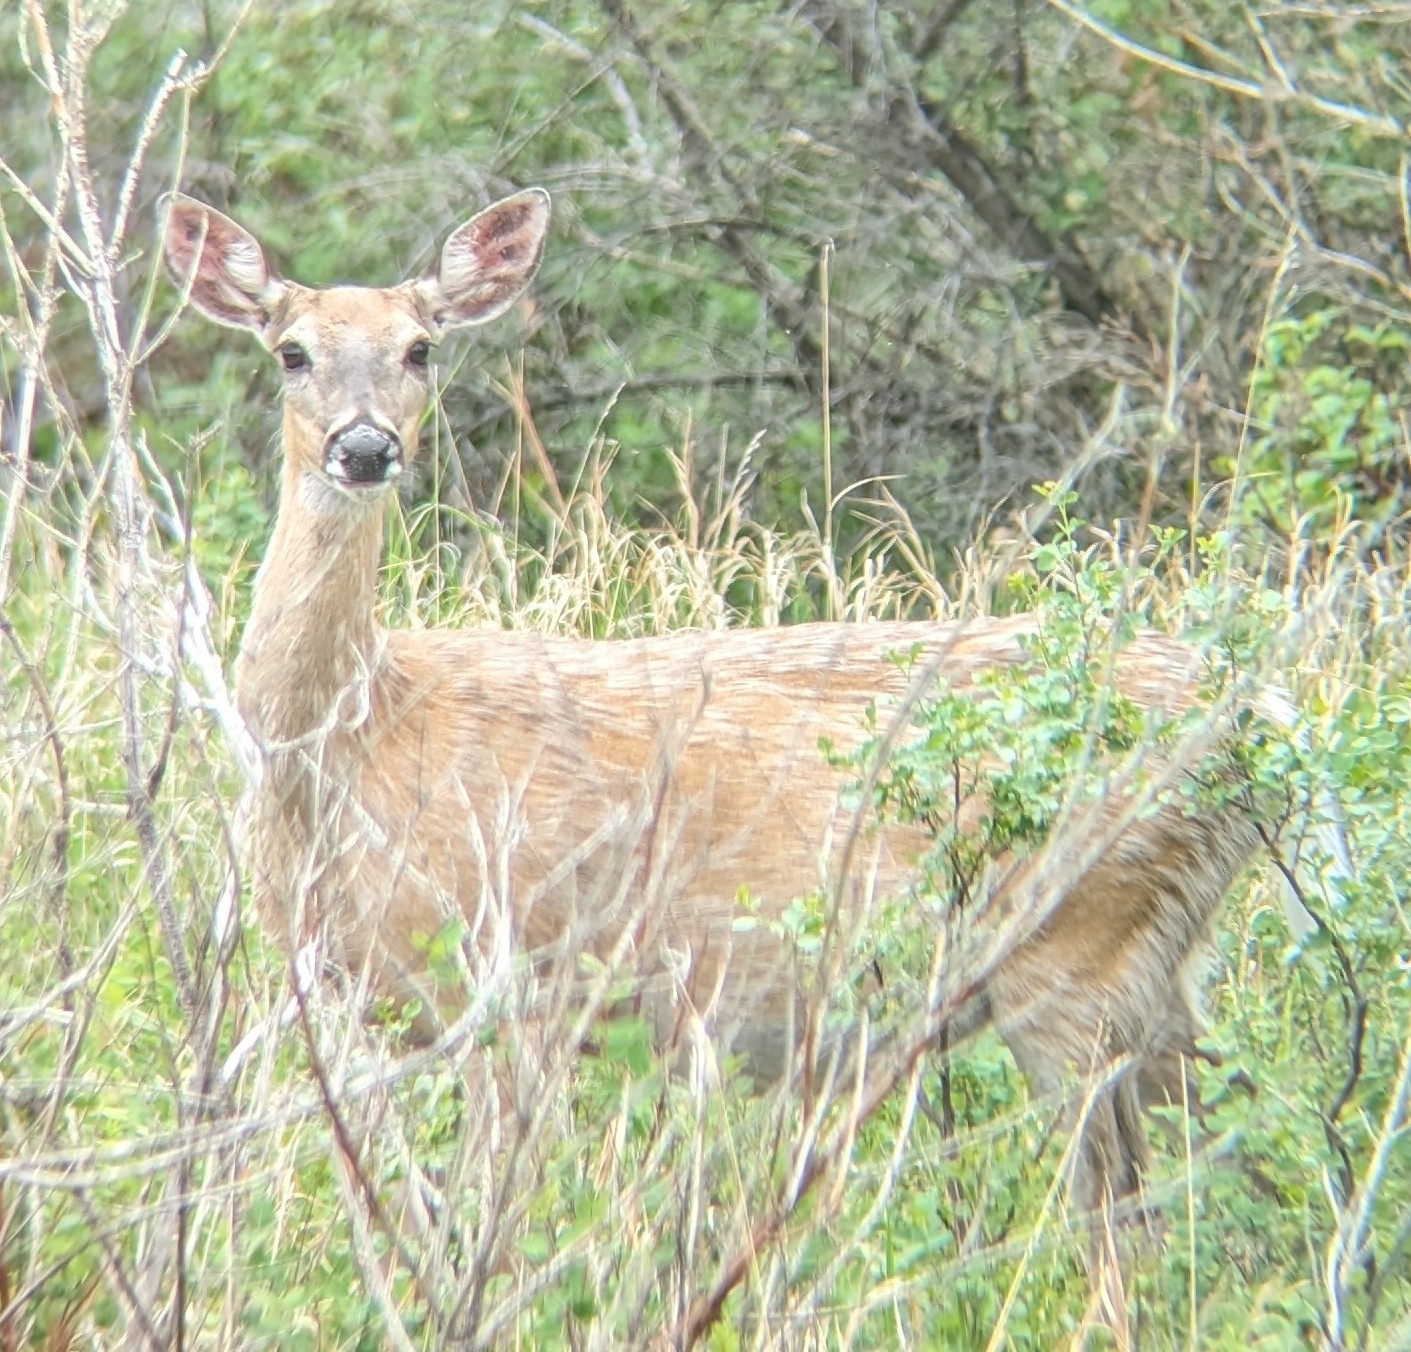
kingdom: Animalia
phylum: Chordata
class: Mammalia
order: Artiodactyla
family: Cervidae
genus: Odocoileus
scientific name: Odocoileus virginianus
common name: White-tailed deer
